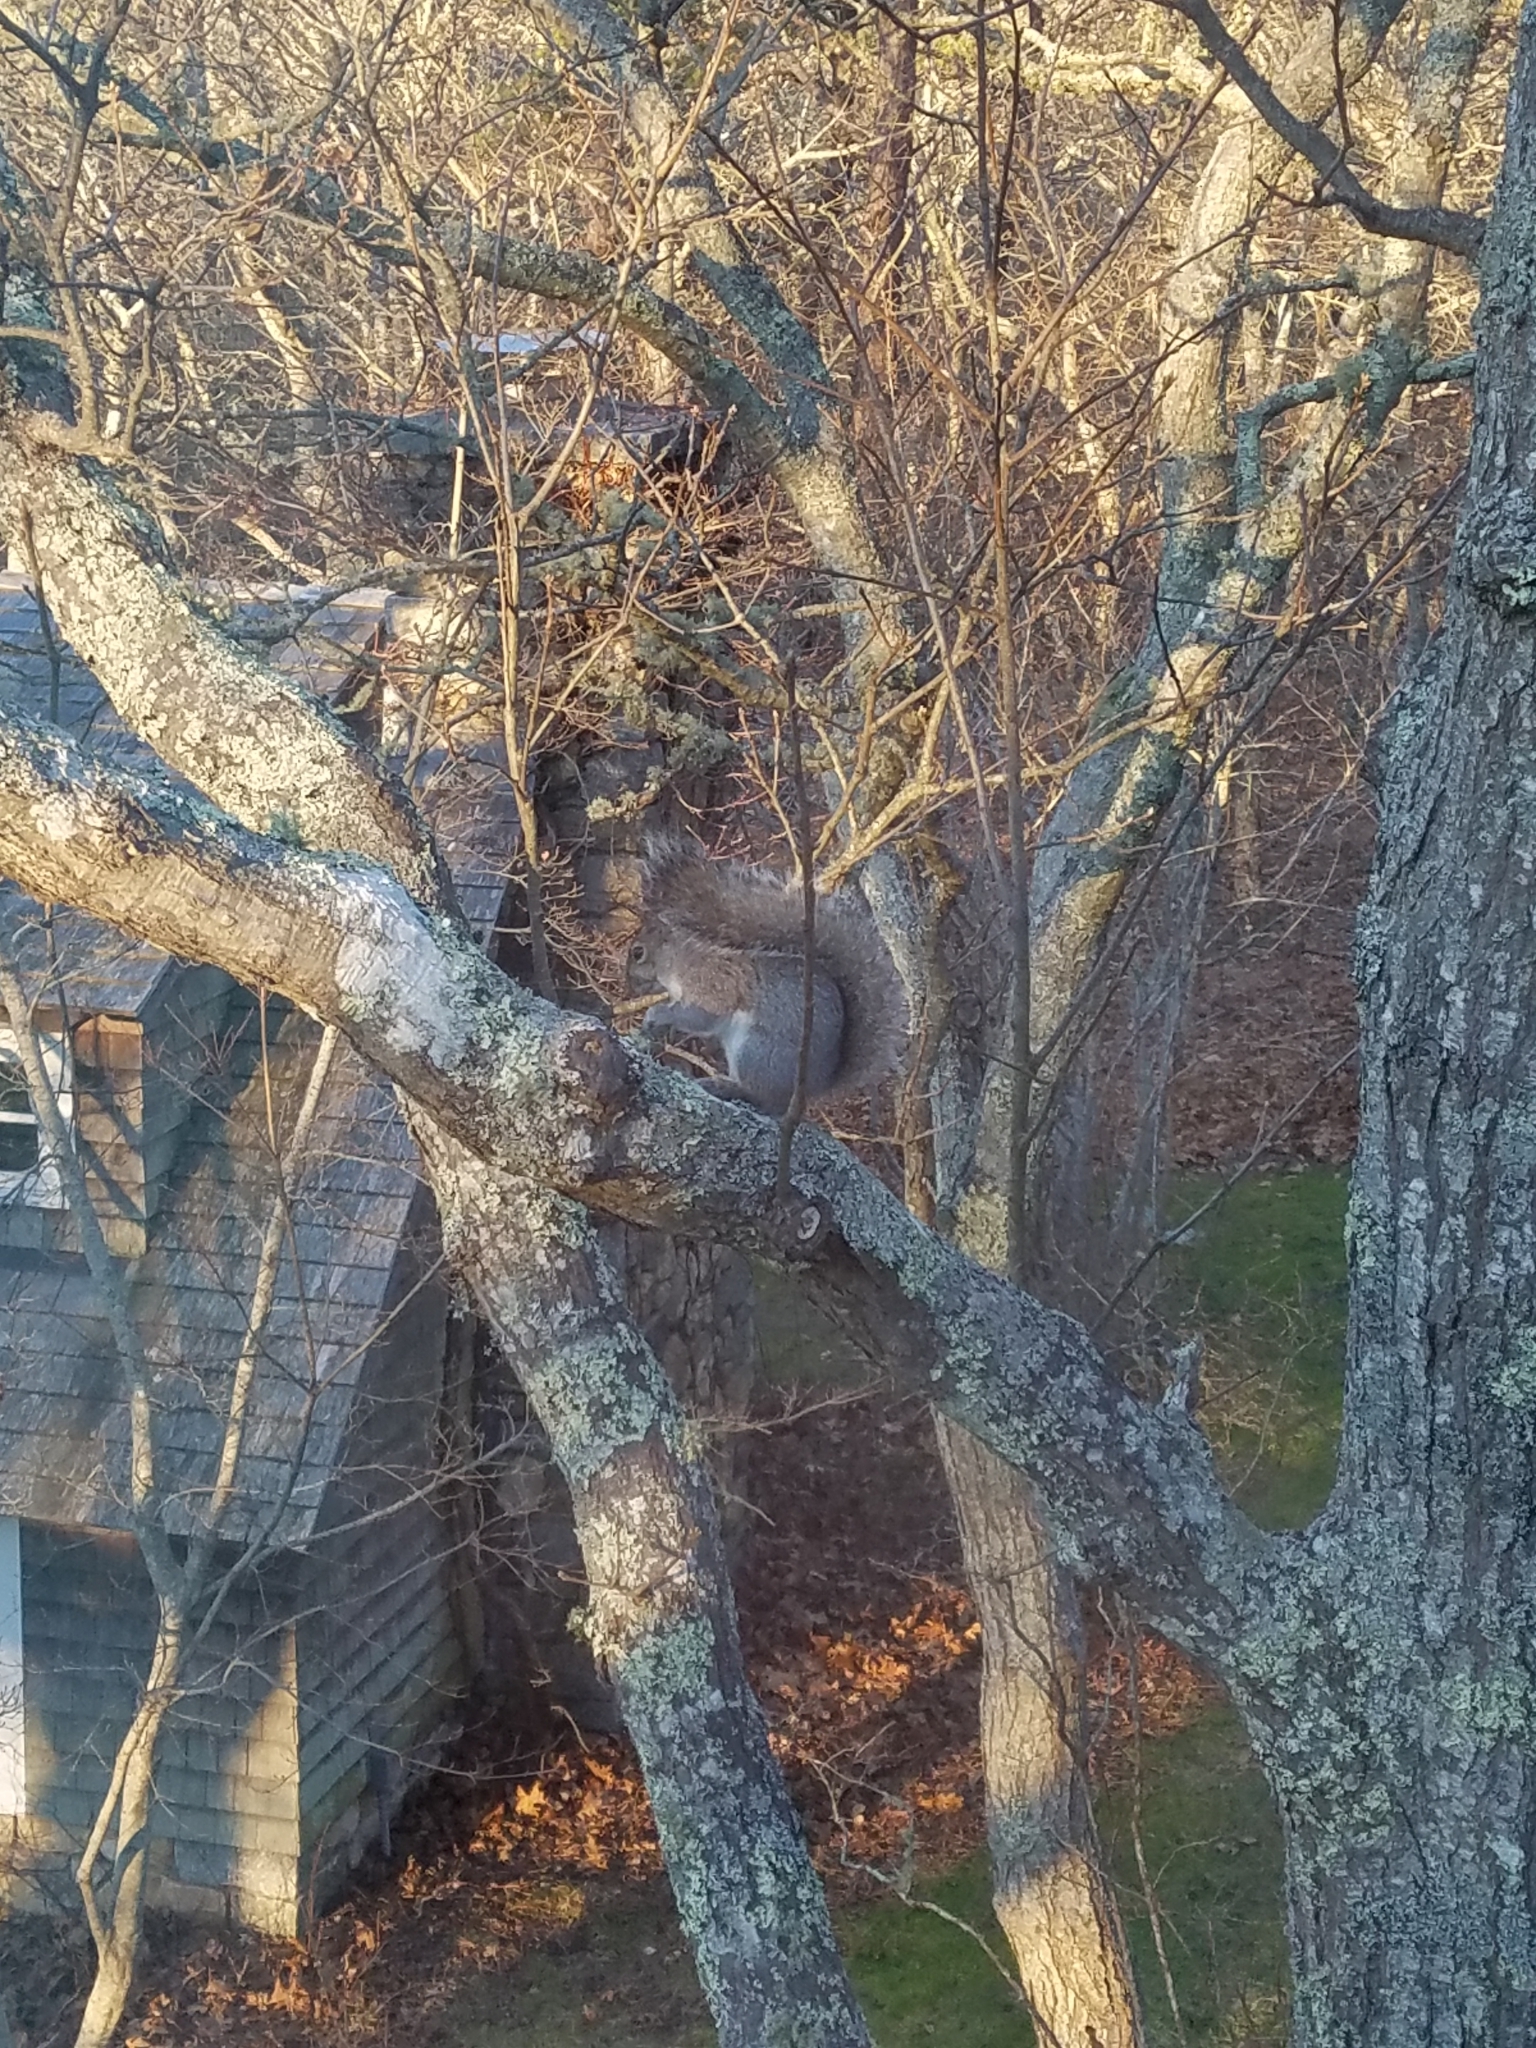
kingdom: Animalia
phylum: Chordata
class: Mammalia
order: Rodentia
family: Sciuridae
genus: Sciurus
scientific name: Sciurus carolinensis
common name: Eastern gray squirrel
